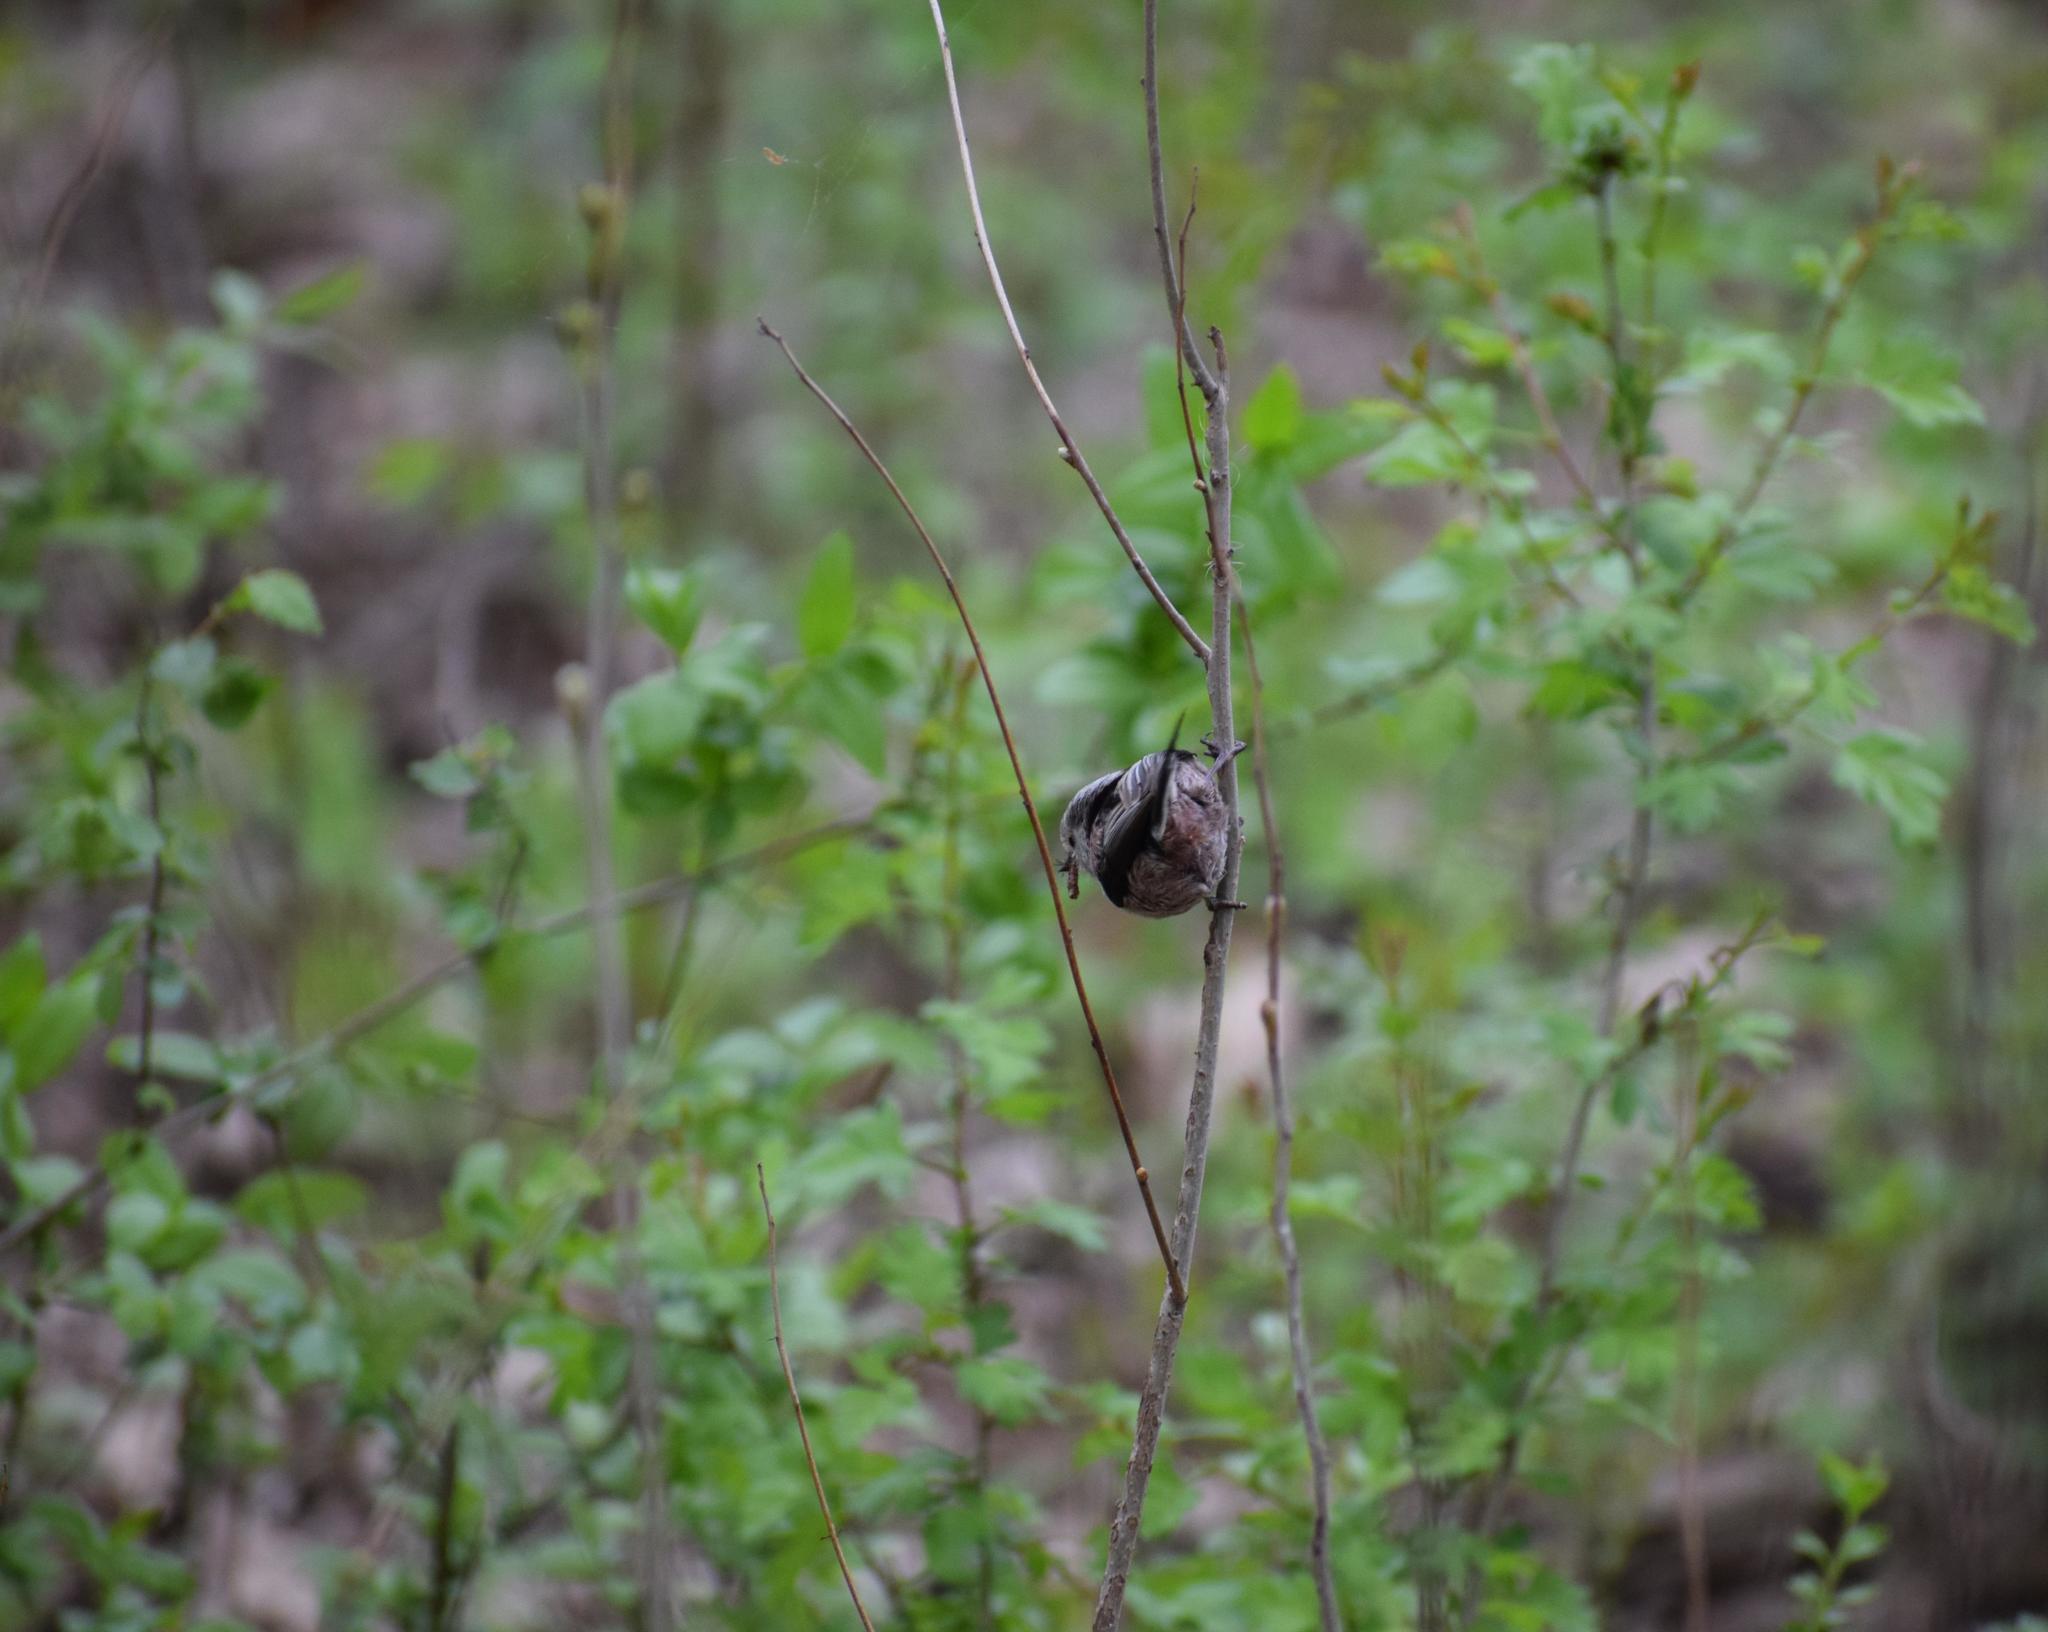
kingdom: Animalia
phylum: Chordata
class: Aves
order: Passeriformes
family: Aegithalidae
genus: Aegithalos
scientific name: Aegithalos caudatus
